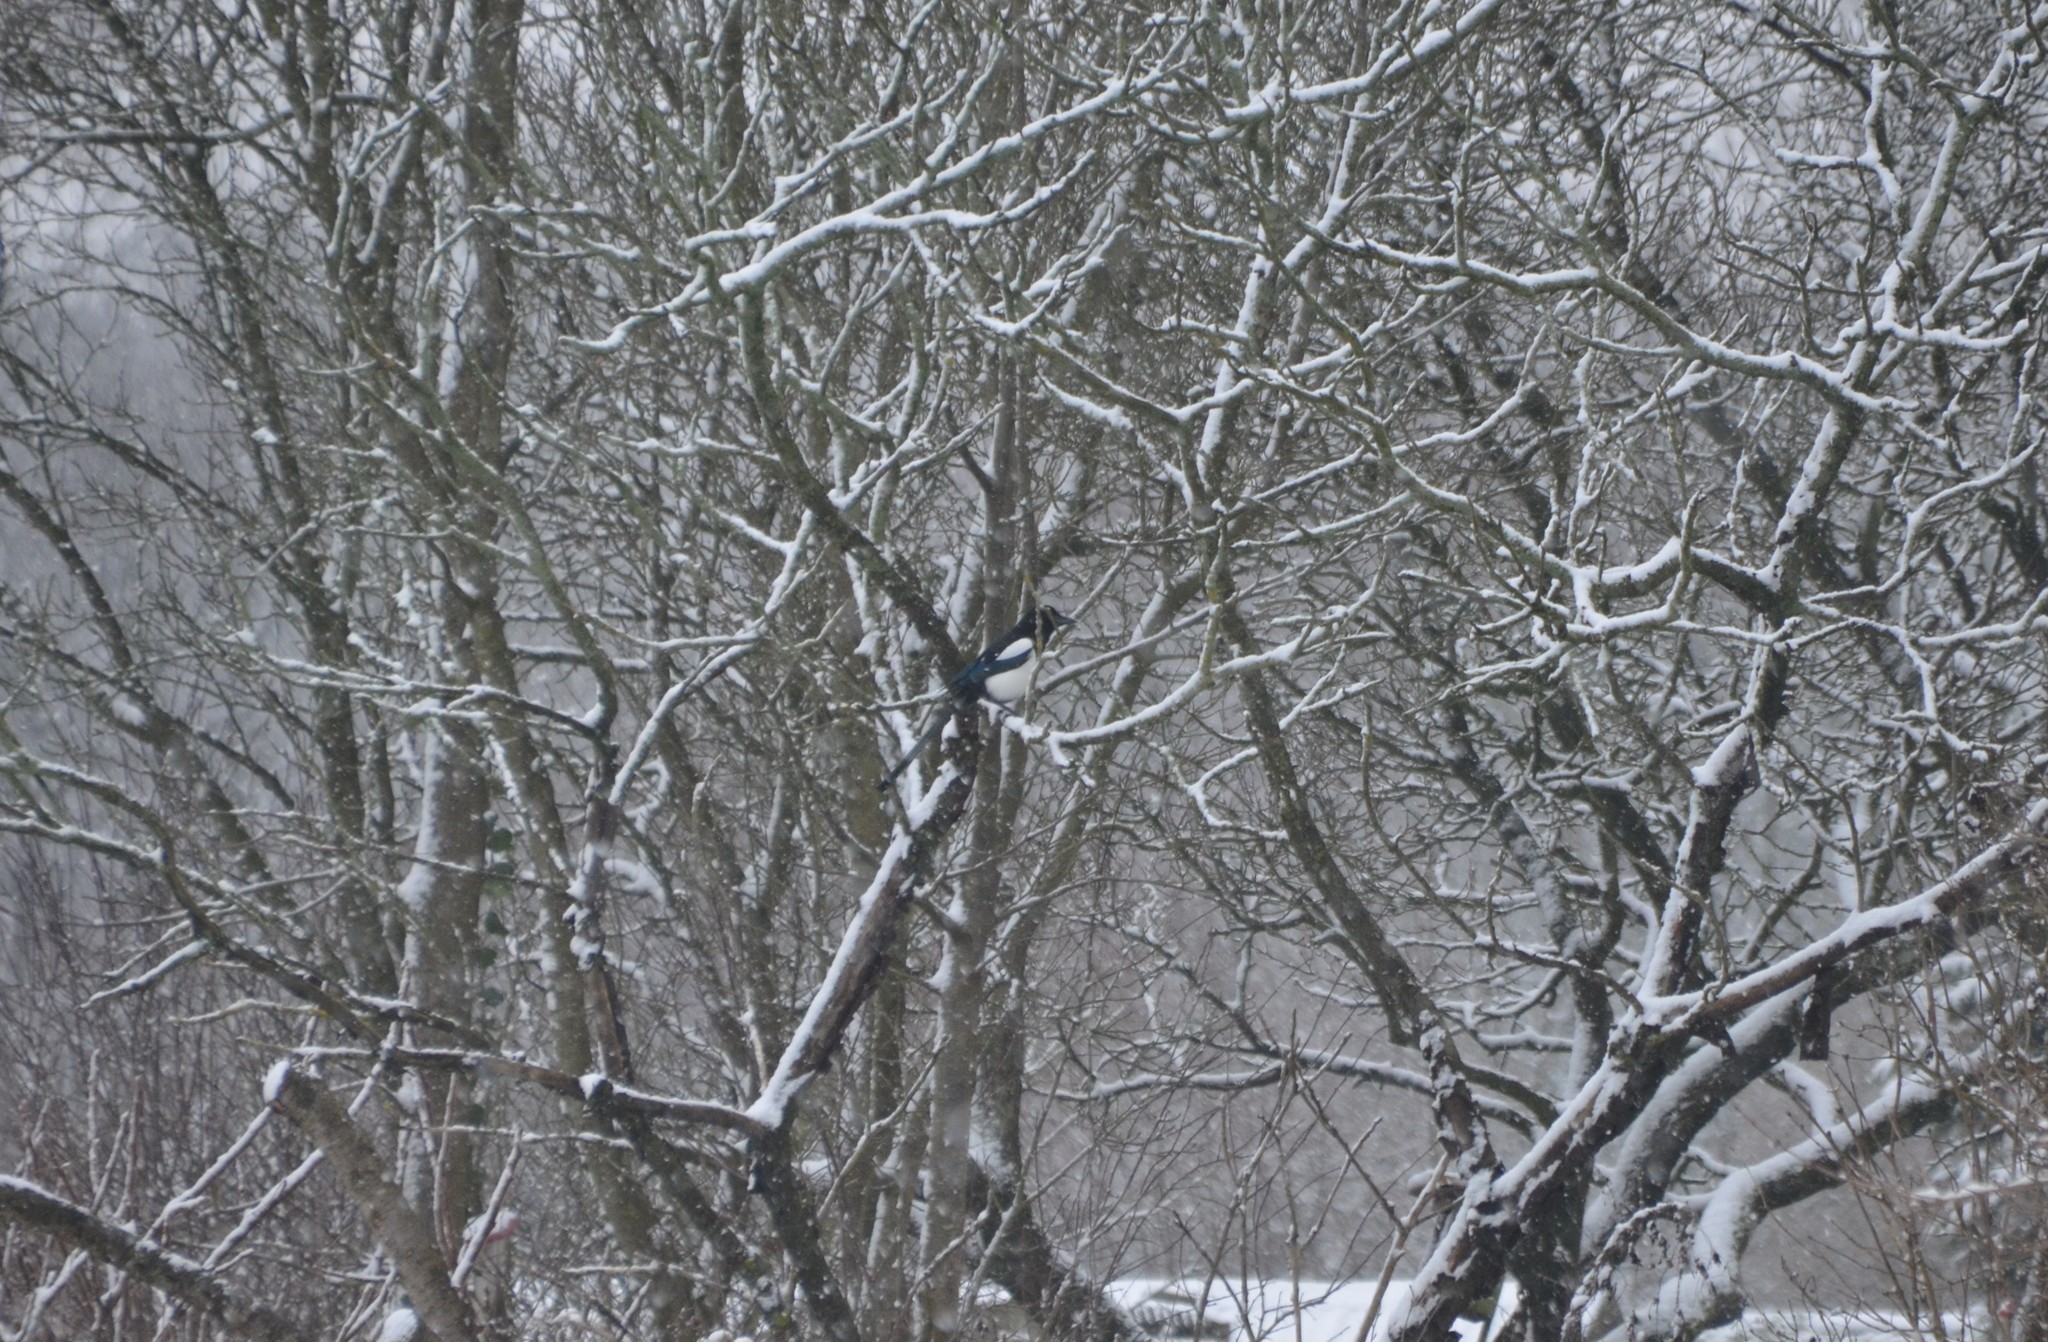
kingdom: Animalia
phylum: Chordata
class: Aves
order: Passeriformes
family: Corvidae
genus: Pica
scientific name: Pica pica
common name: Eurasian magpie
